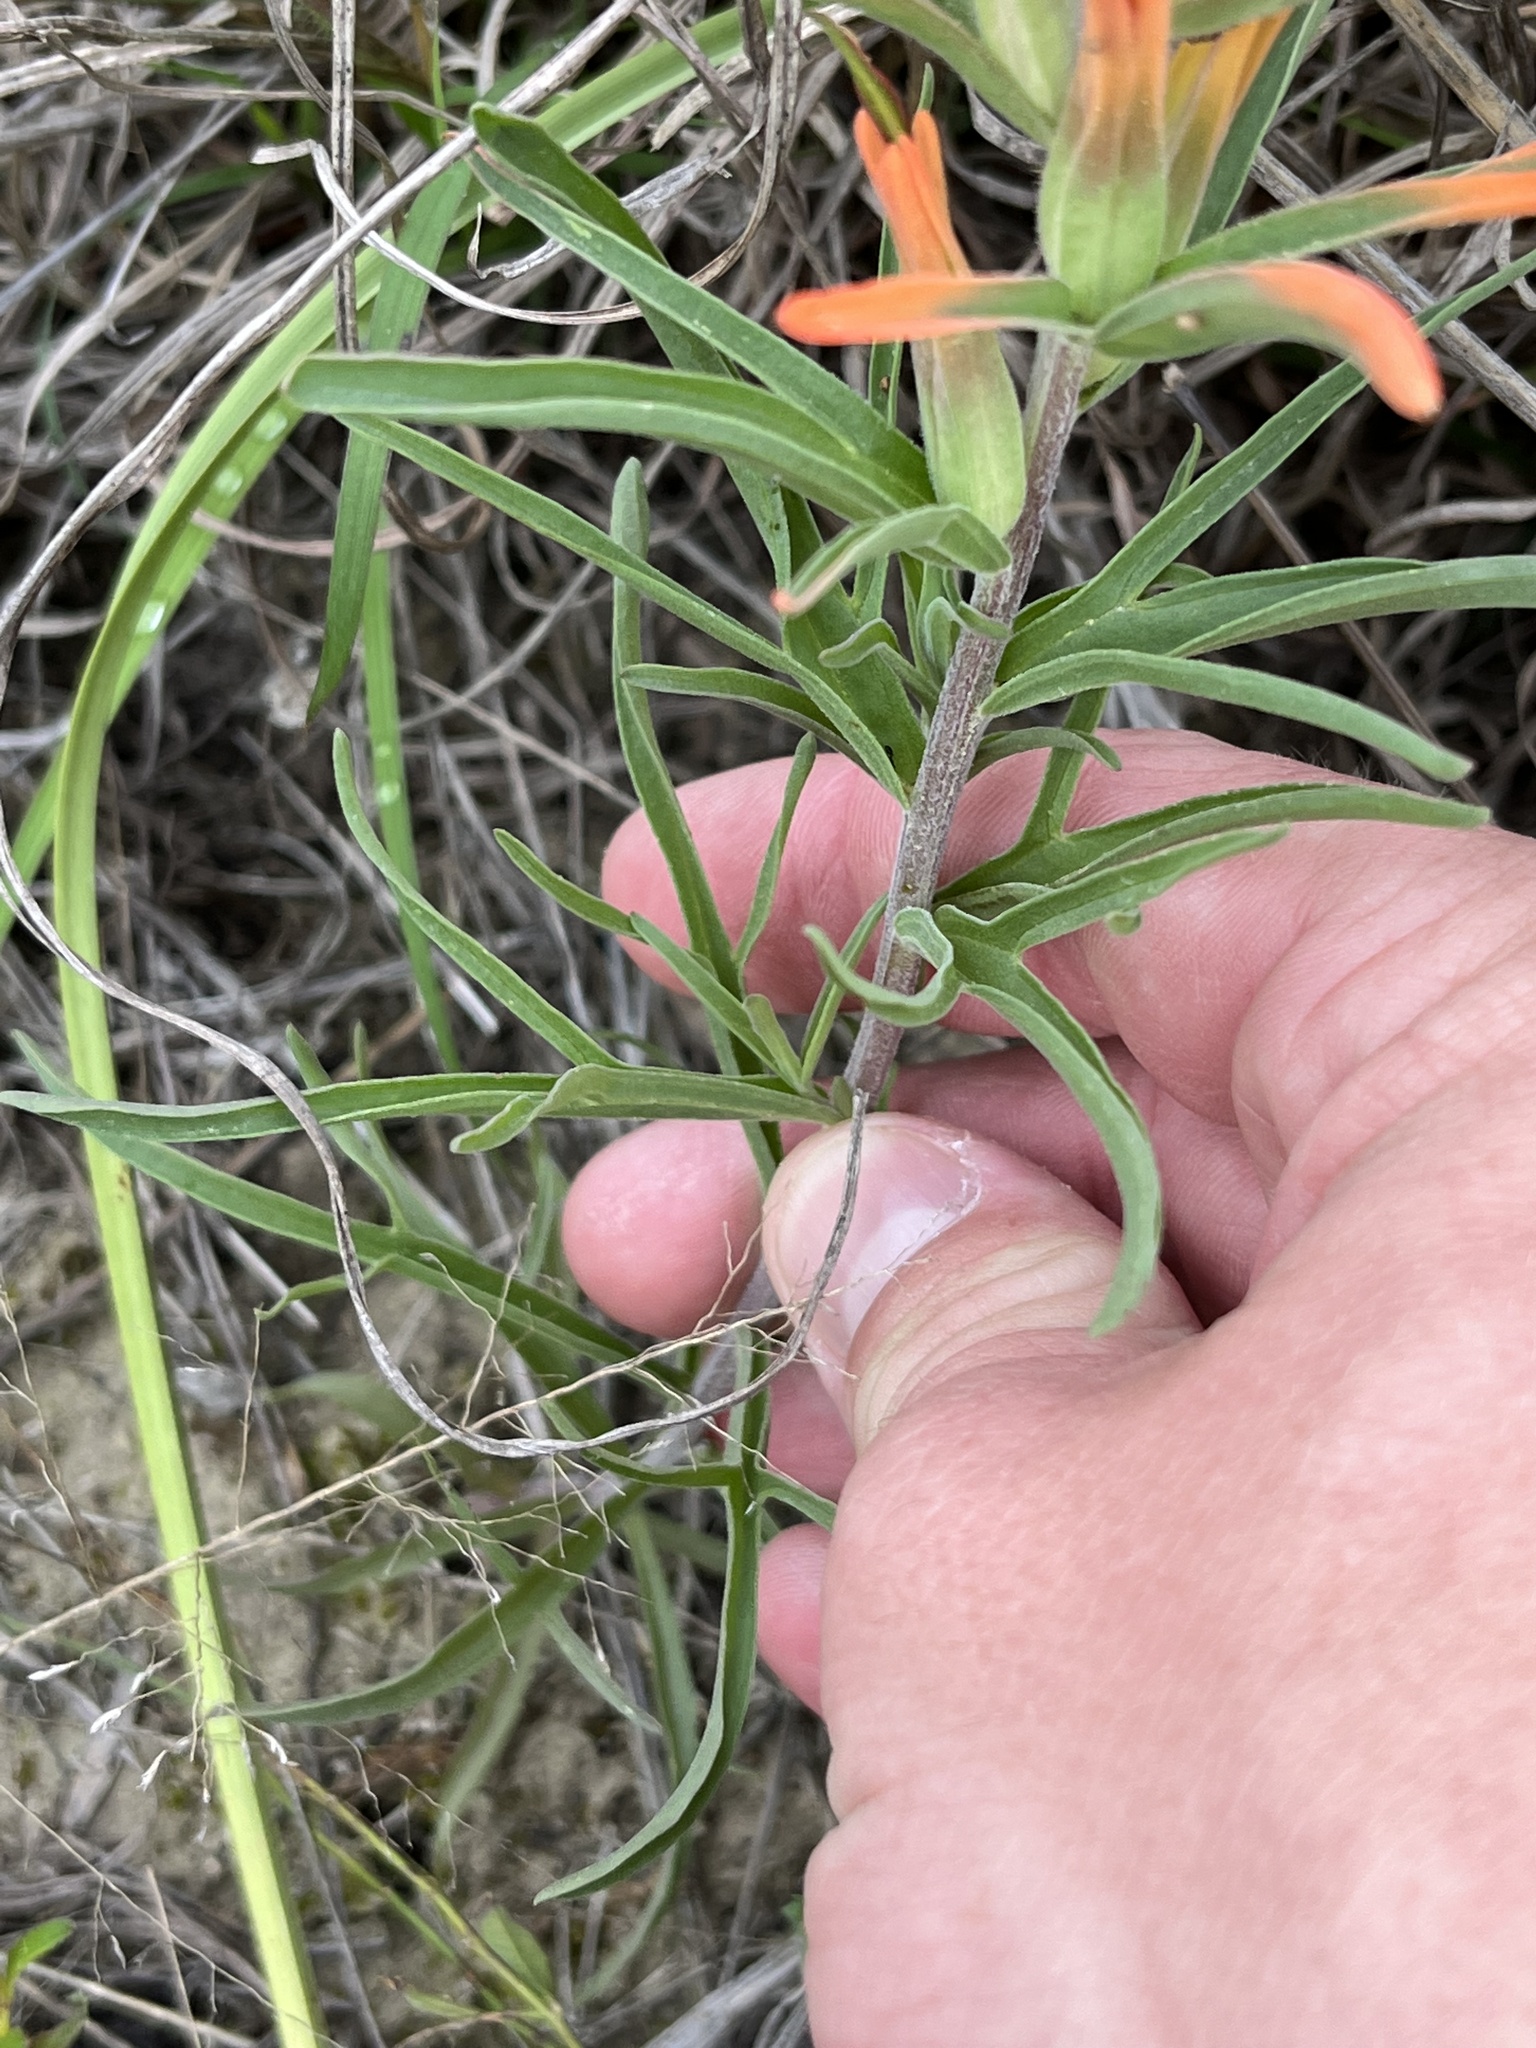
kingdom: Plantae
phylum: Tracheophyta
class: Magnoliopsida
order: Lamiales
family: Orobanchaceae
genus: Castilleja
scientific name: Castilleja lindheimeri
